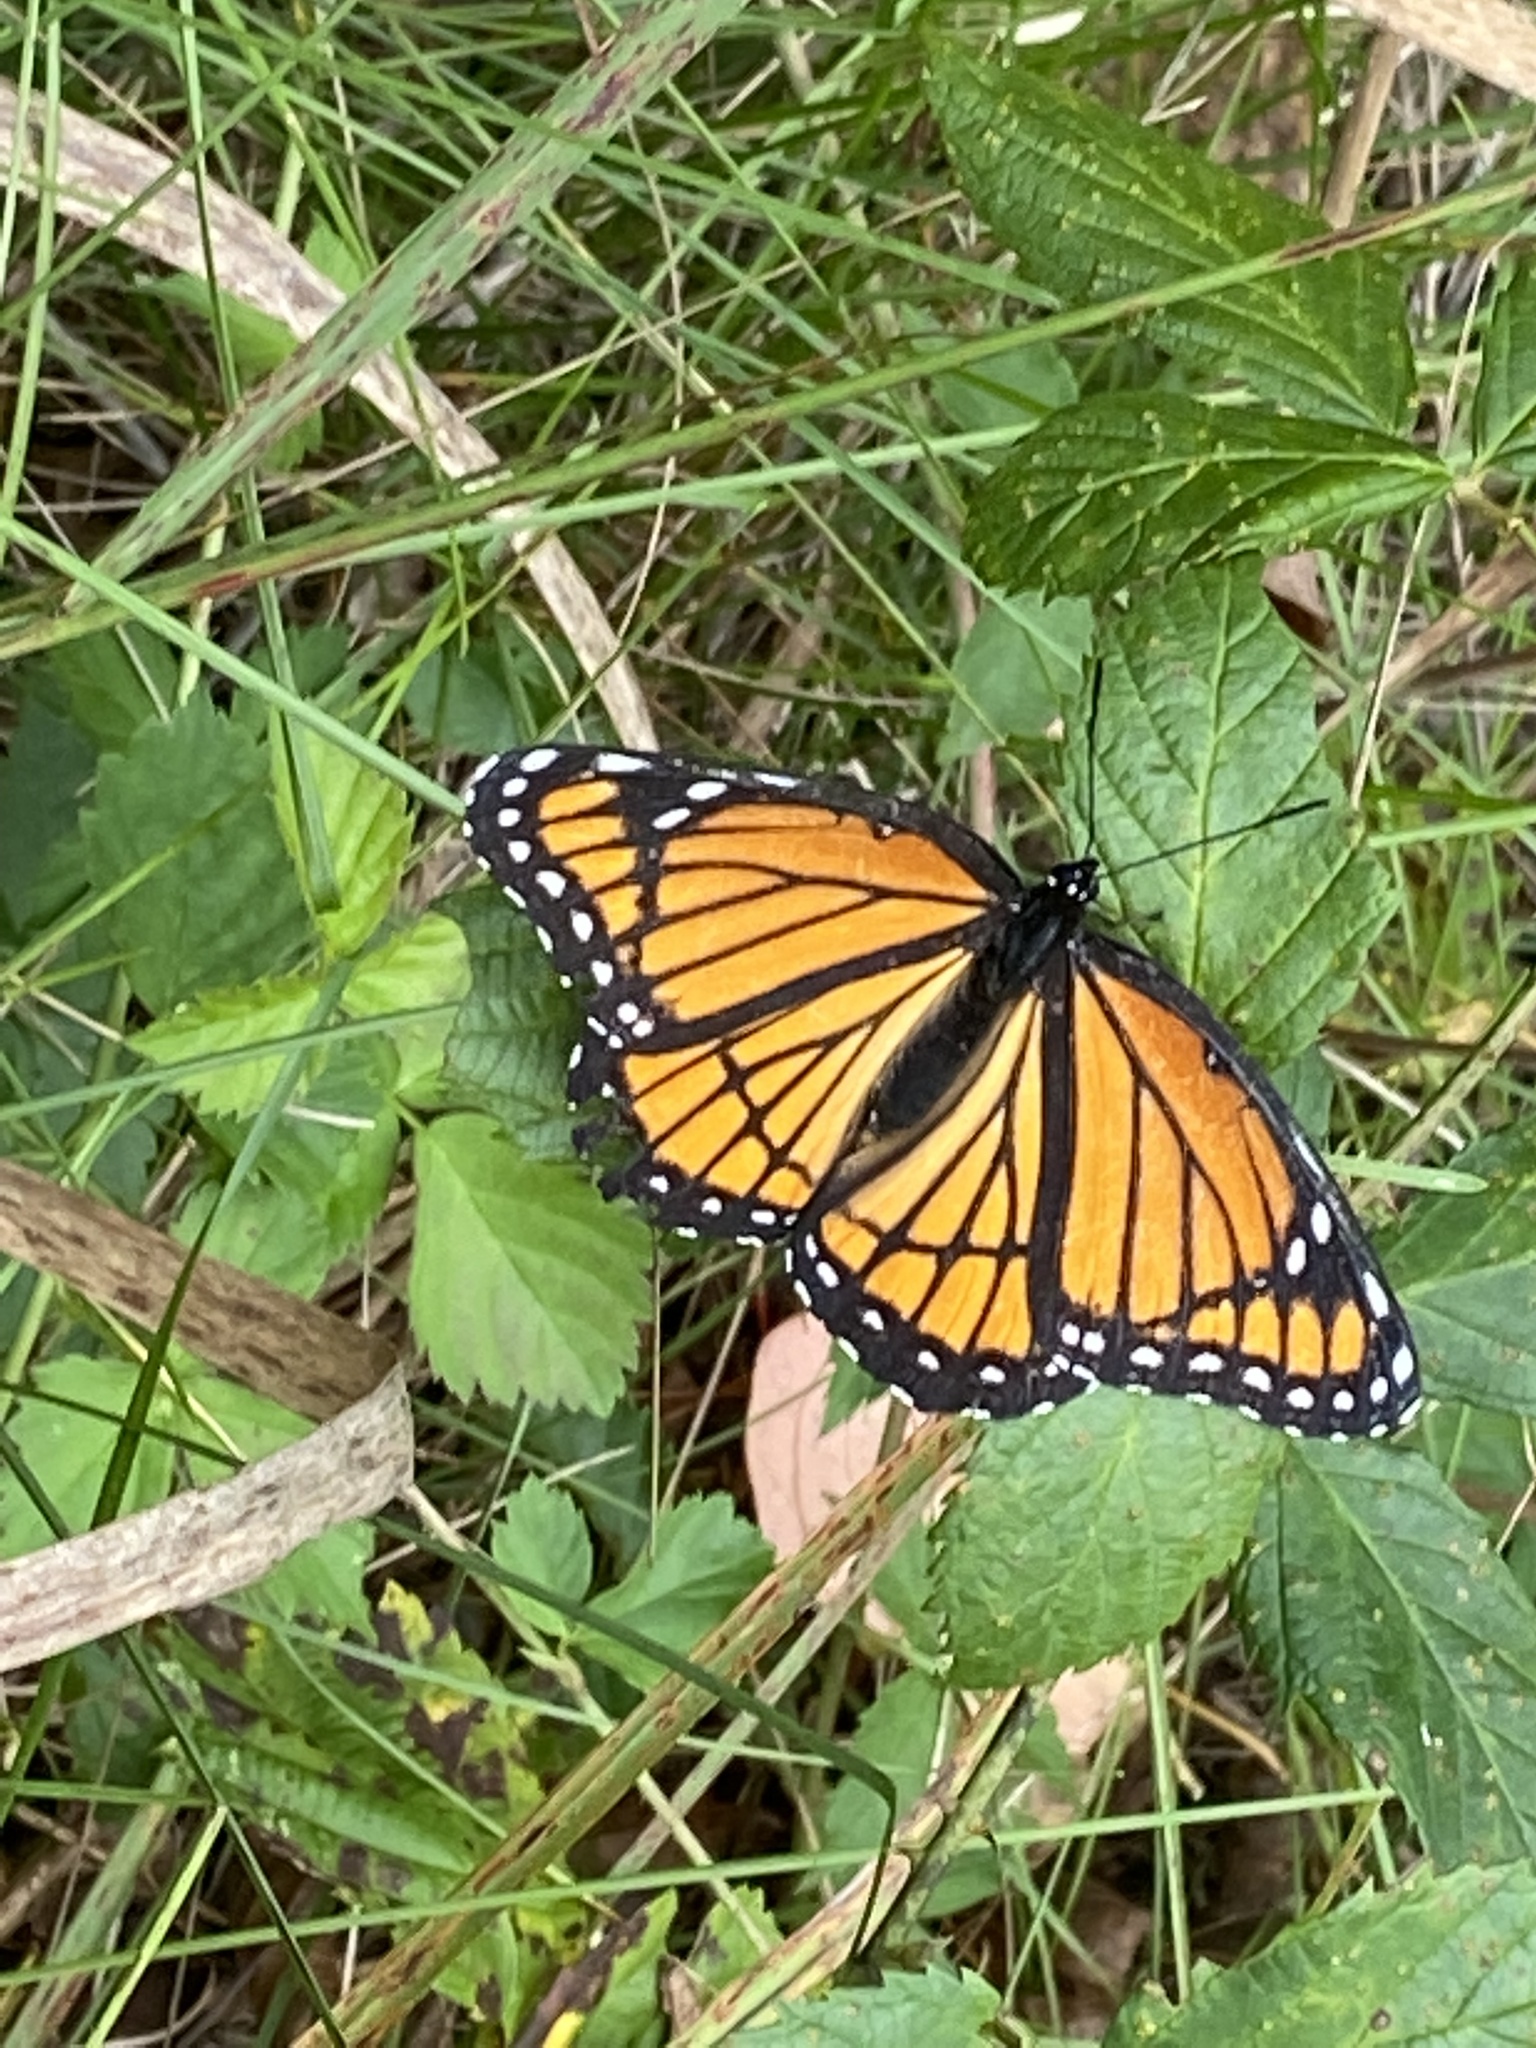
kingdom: Animalia
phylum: Arthropoda
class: Insecta
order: Lepidoptera
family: Nymphalidae
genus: Limenitis
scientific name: Limenitis archippus
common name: Viceroy
